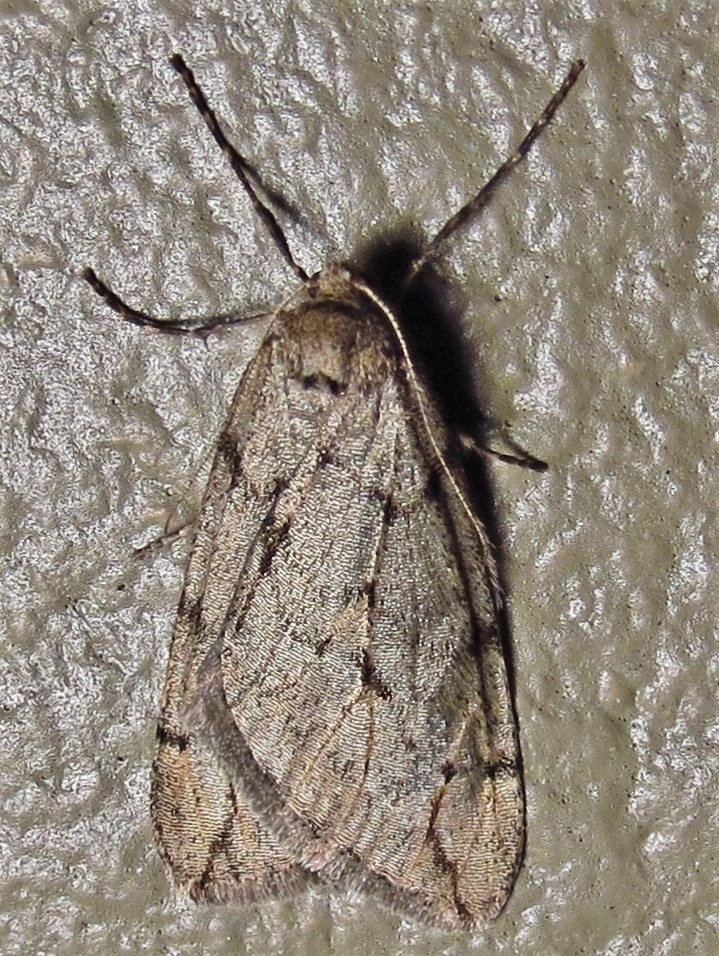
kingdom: Animalia
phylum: Arthropoda
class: Insecta
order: Lepidoptera
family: Geometridae
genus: Paleacrita
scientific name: Paleacrita vernata
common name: Spring cankerworm
